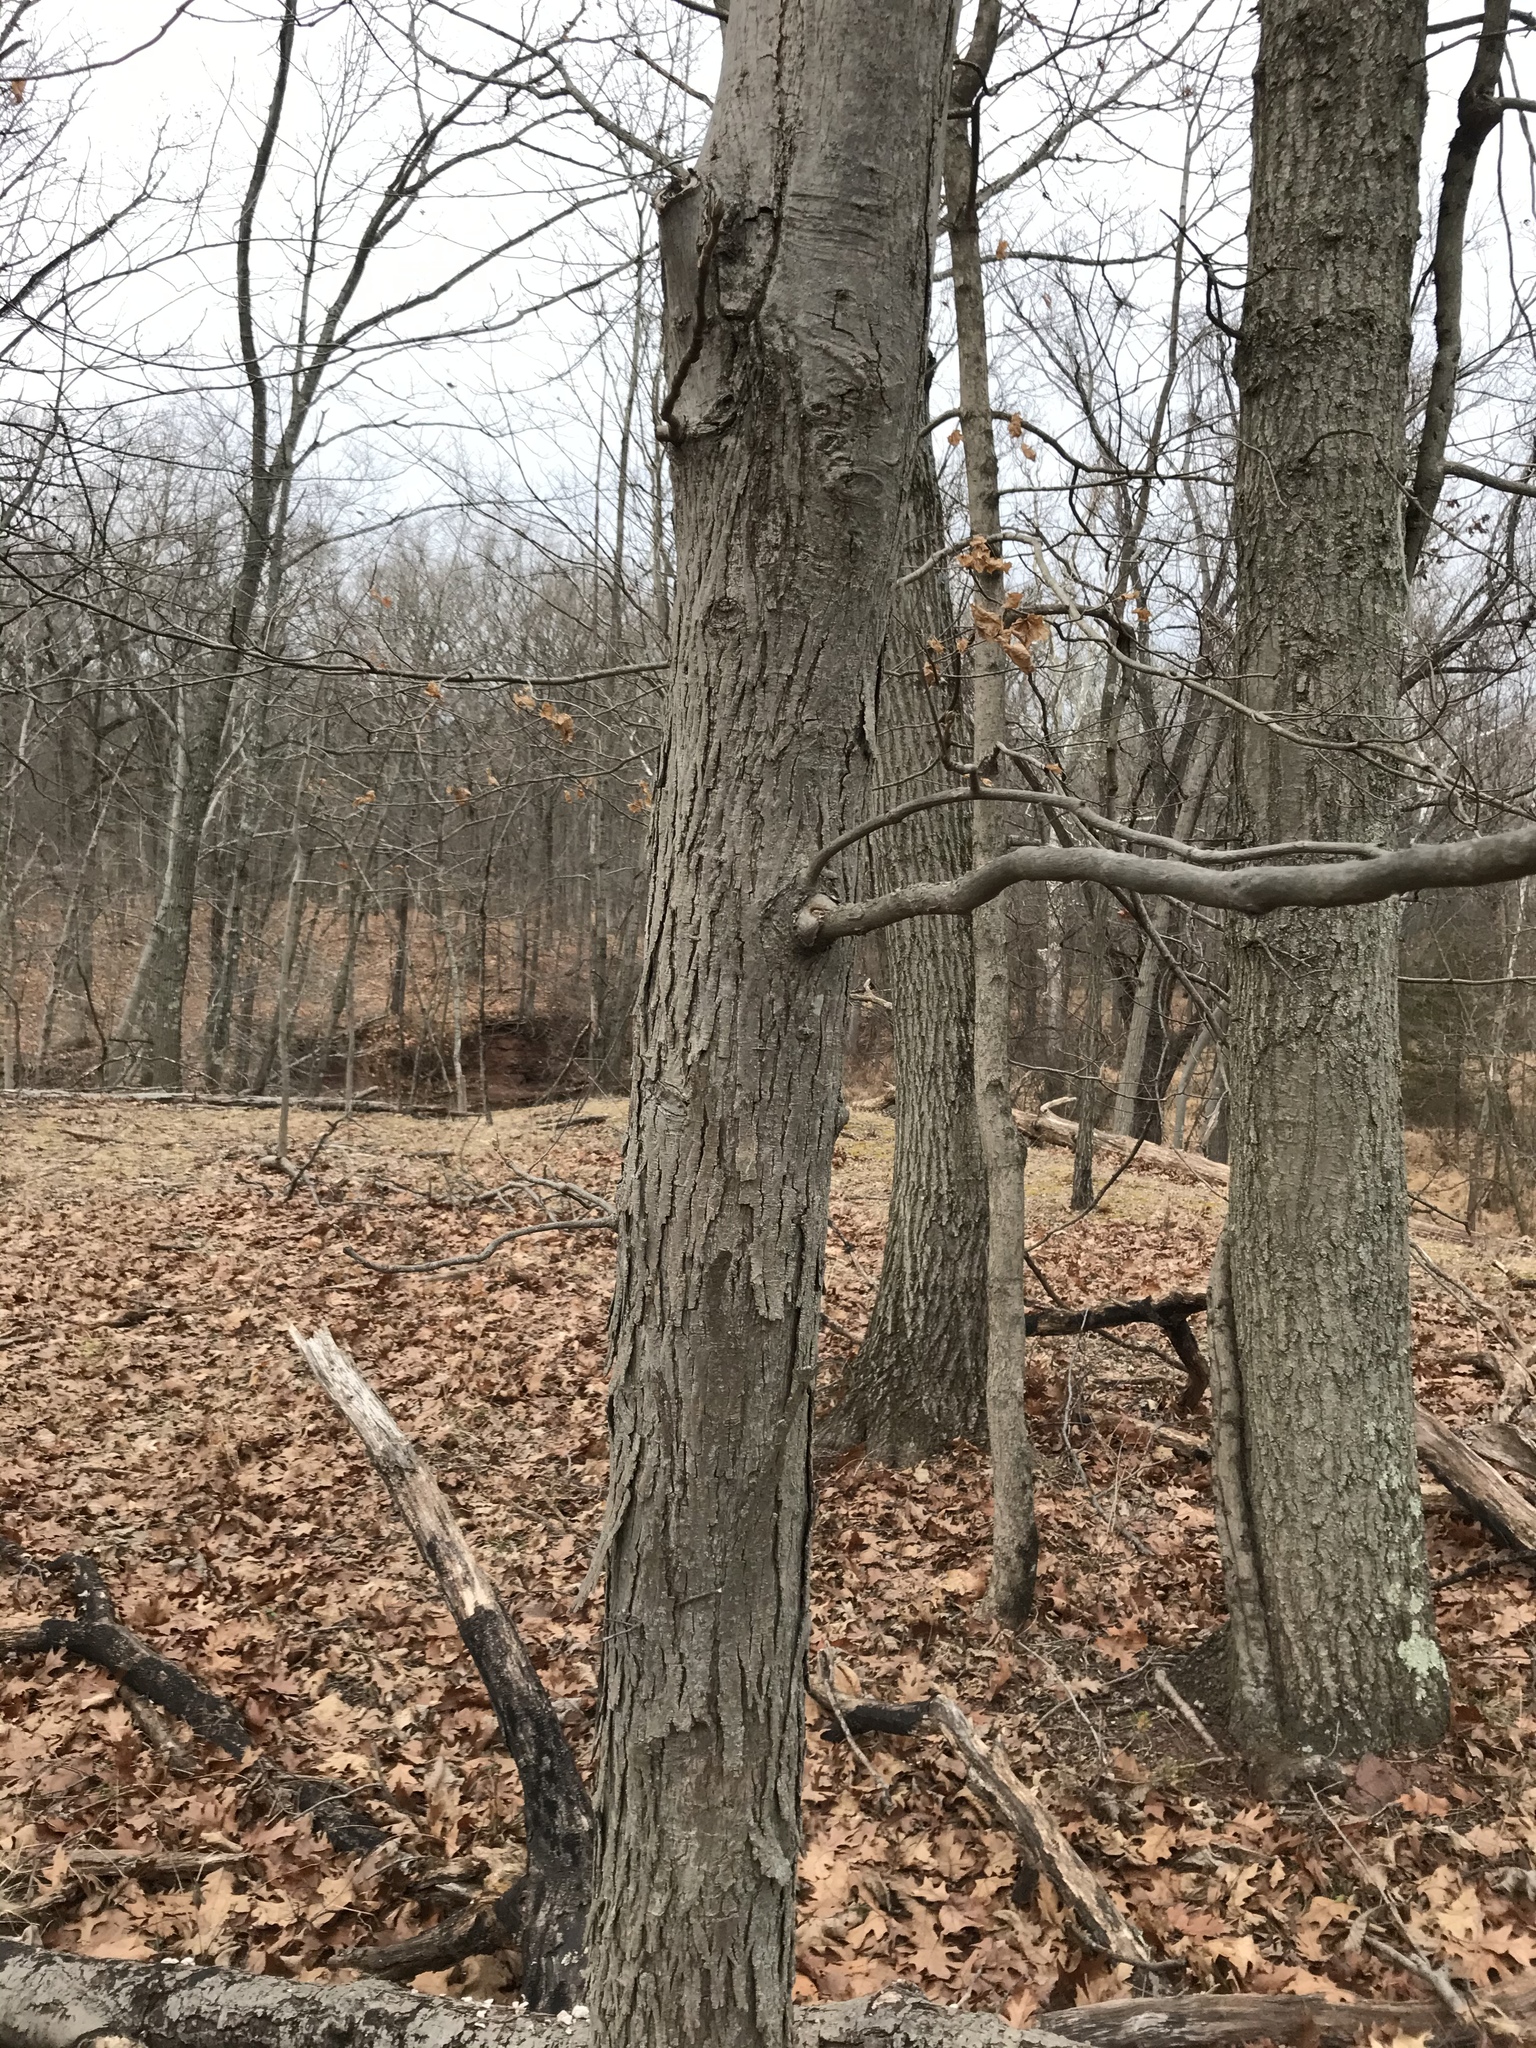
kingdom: Plantae
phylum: Tracheophyta
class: Magnoliopsida
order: Fagales
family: Juglandaceae
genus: Carya
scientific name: Carya ovata
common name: Shagbark hickory
